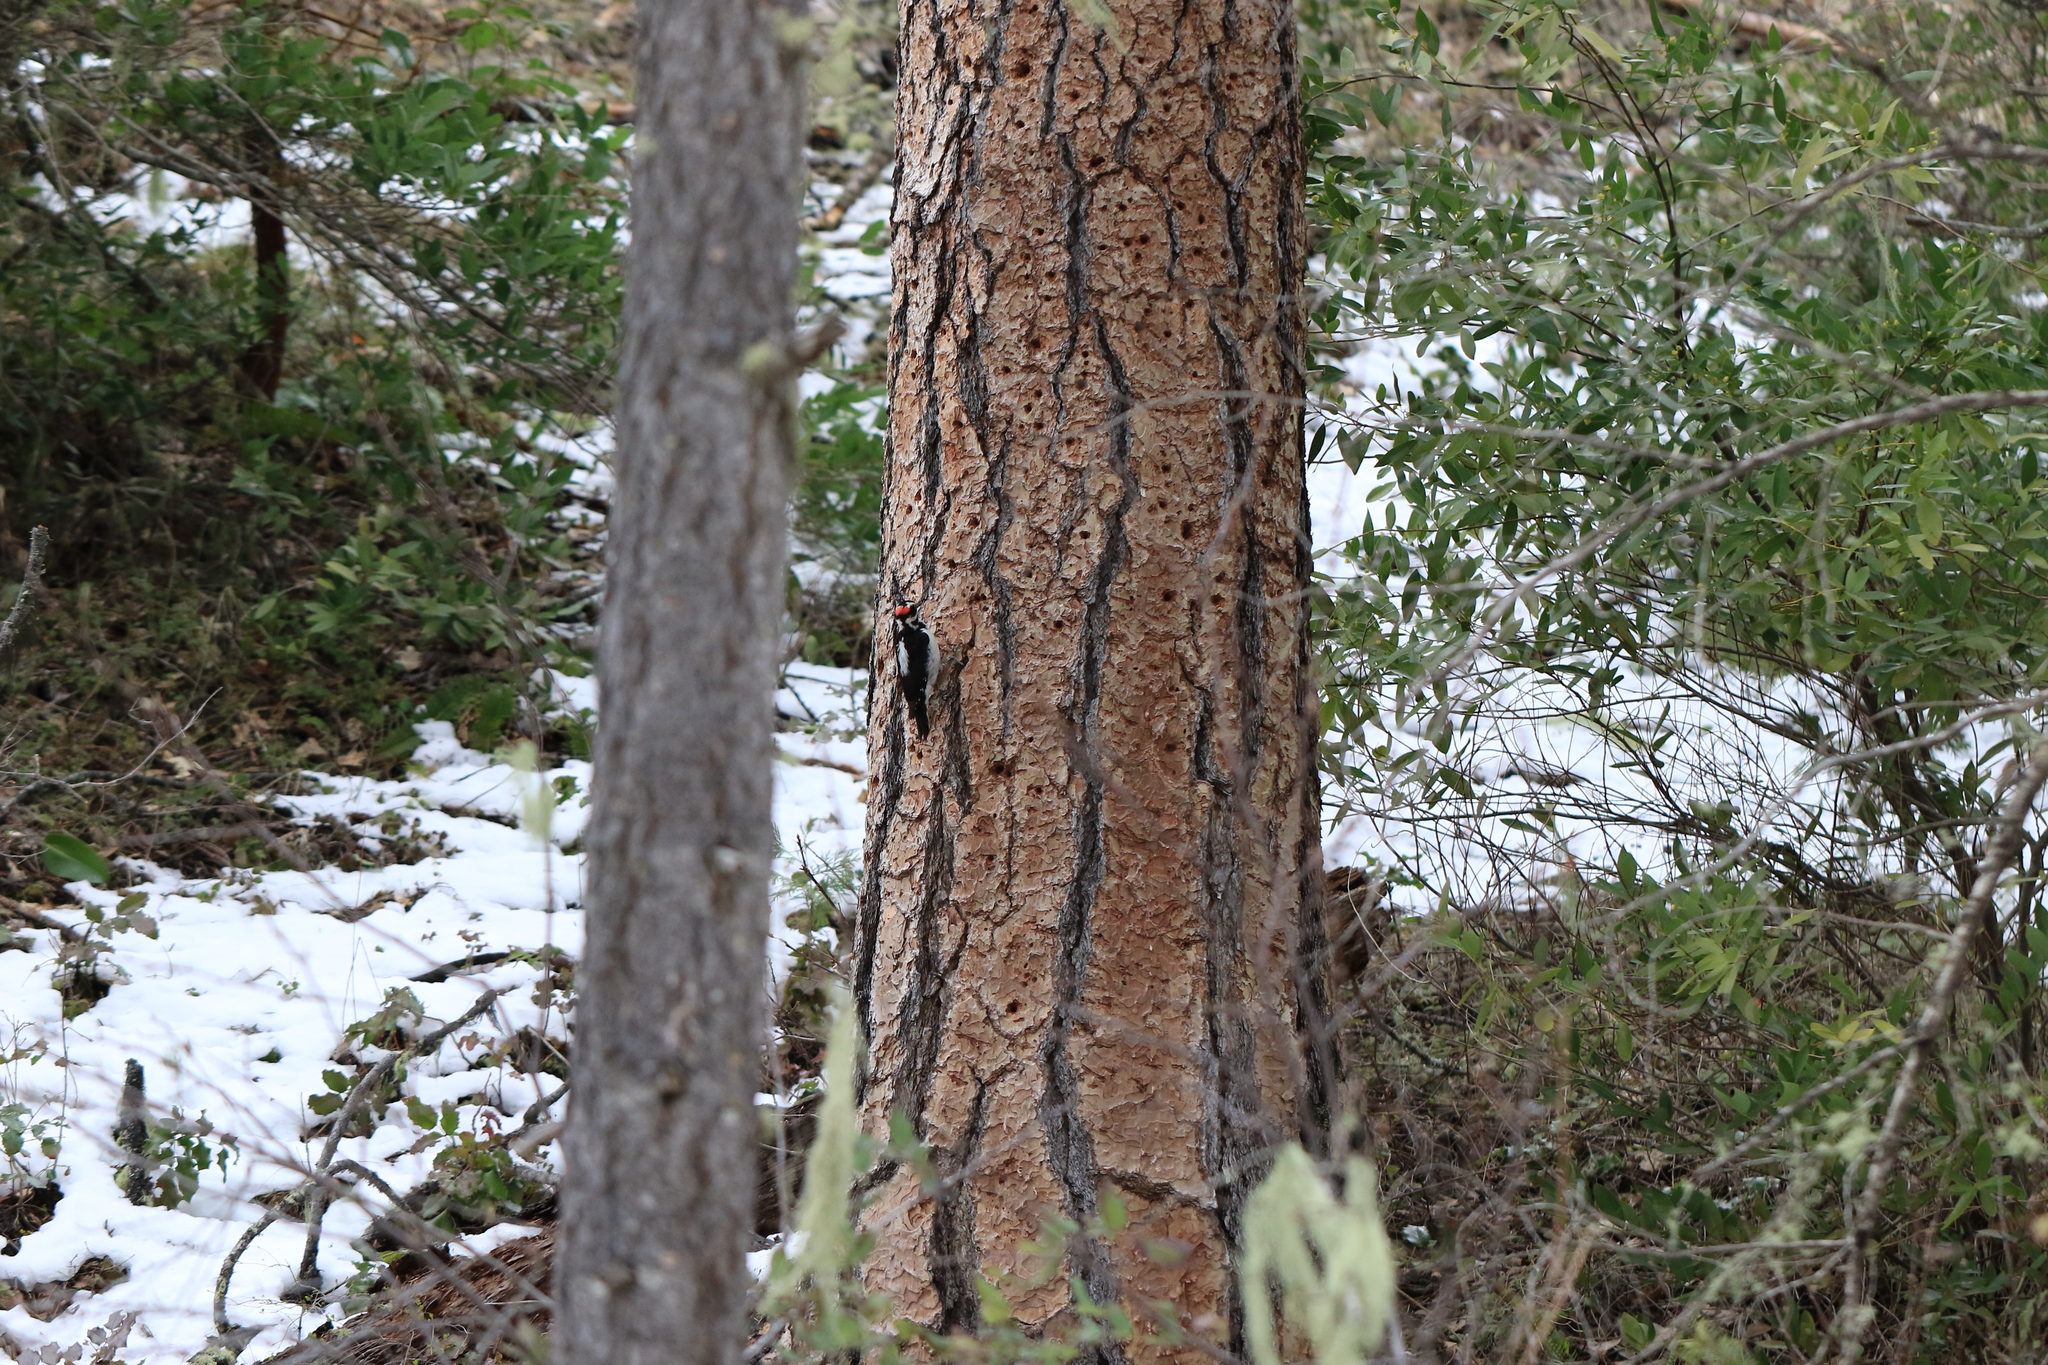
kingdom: Animalia
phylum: Chordata
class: Aves
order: Piciformes
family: Picidae
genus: Leuconotopicus
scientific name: Leuconotopicus villosus
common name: Hairy woodpecker
